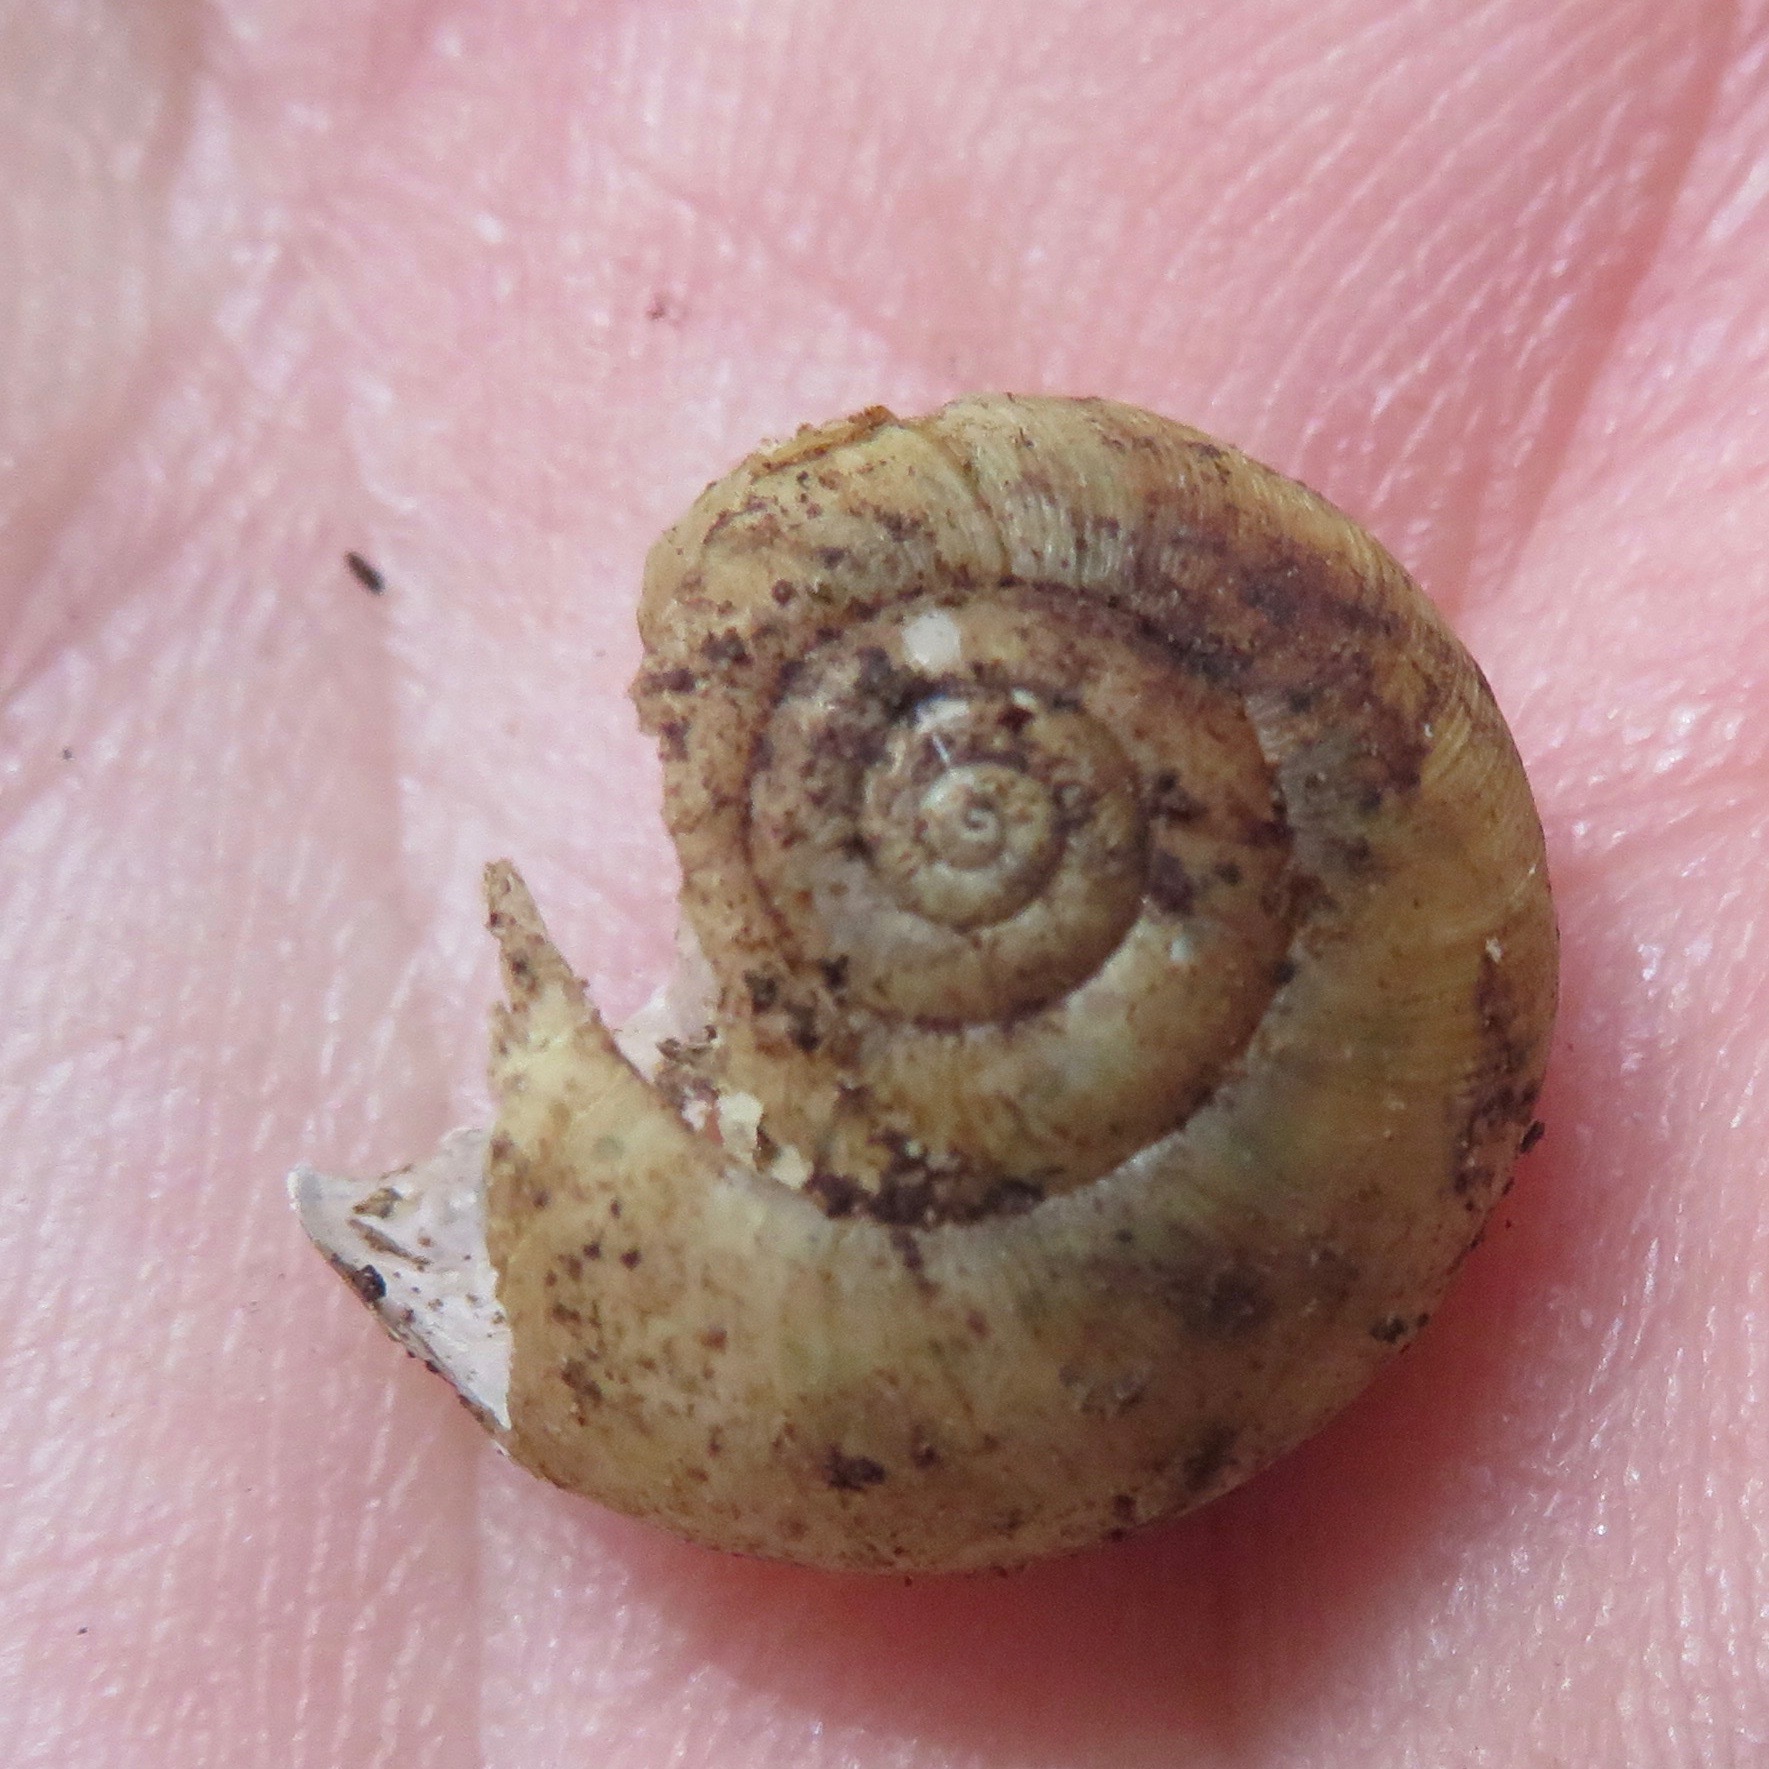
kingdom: Animalia
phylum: Mollusca
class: Gastropoda
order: Stylommatophora
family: Haplotrematidae
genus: Haplotrema
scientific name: Haplotrema minimum
